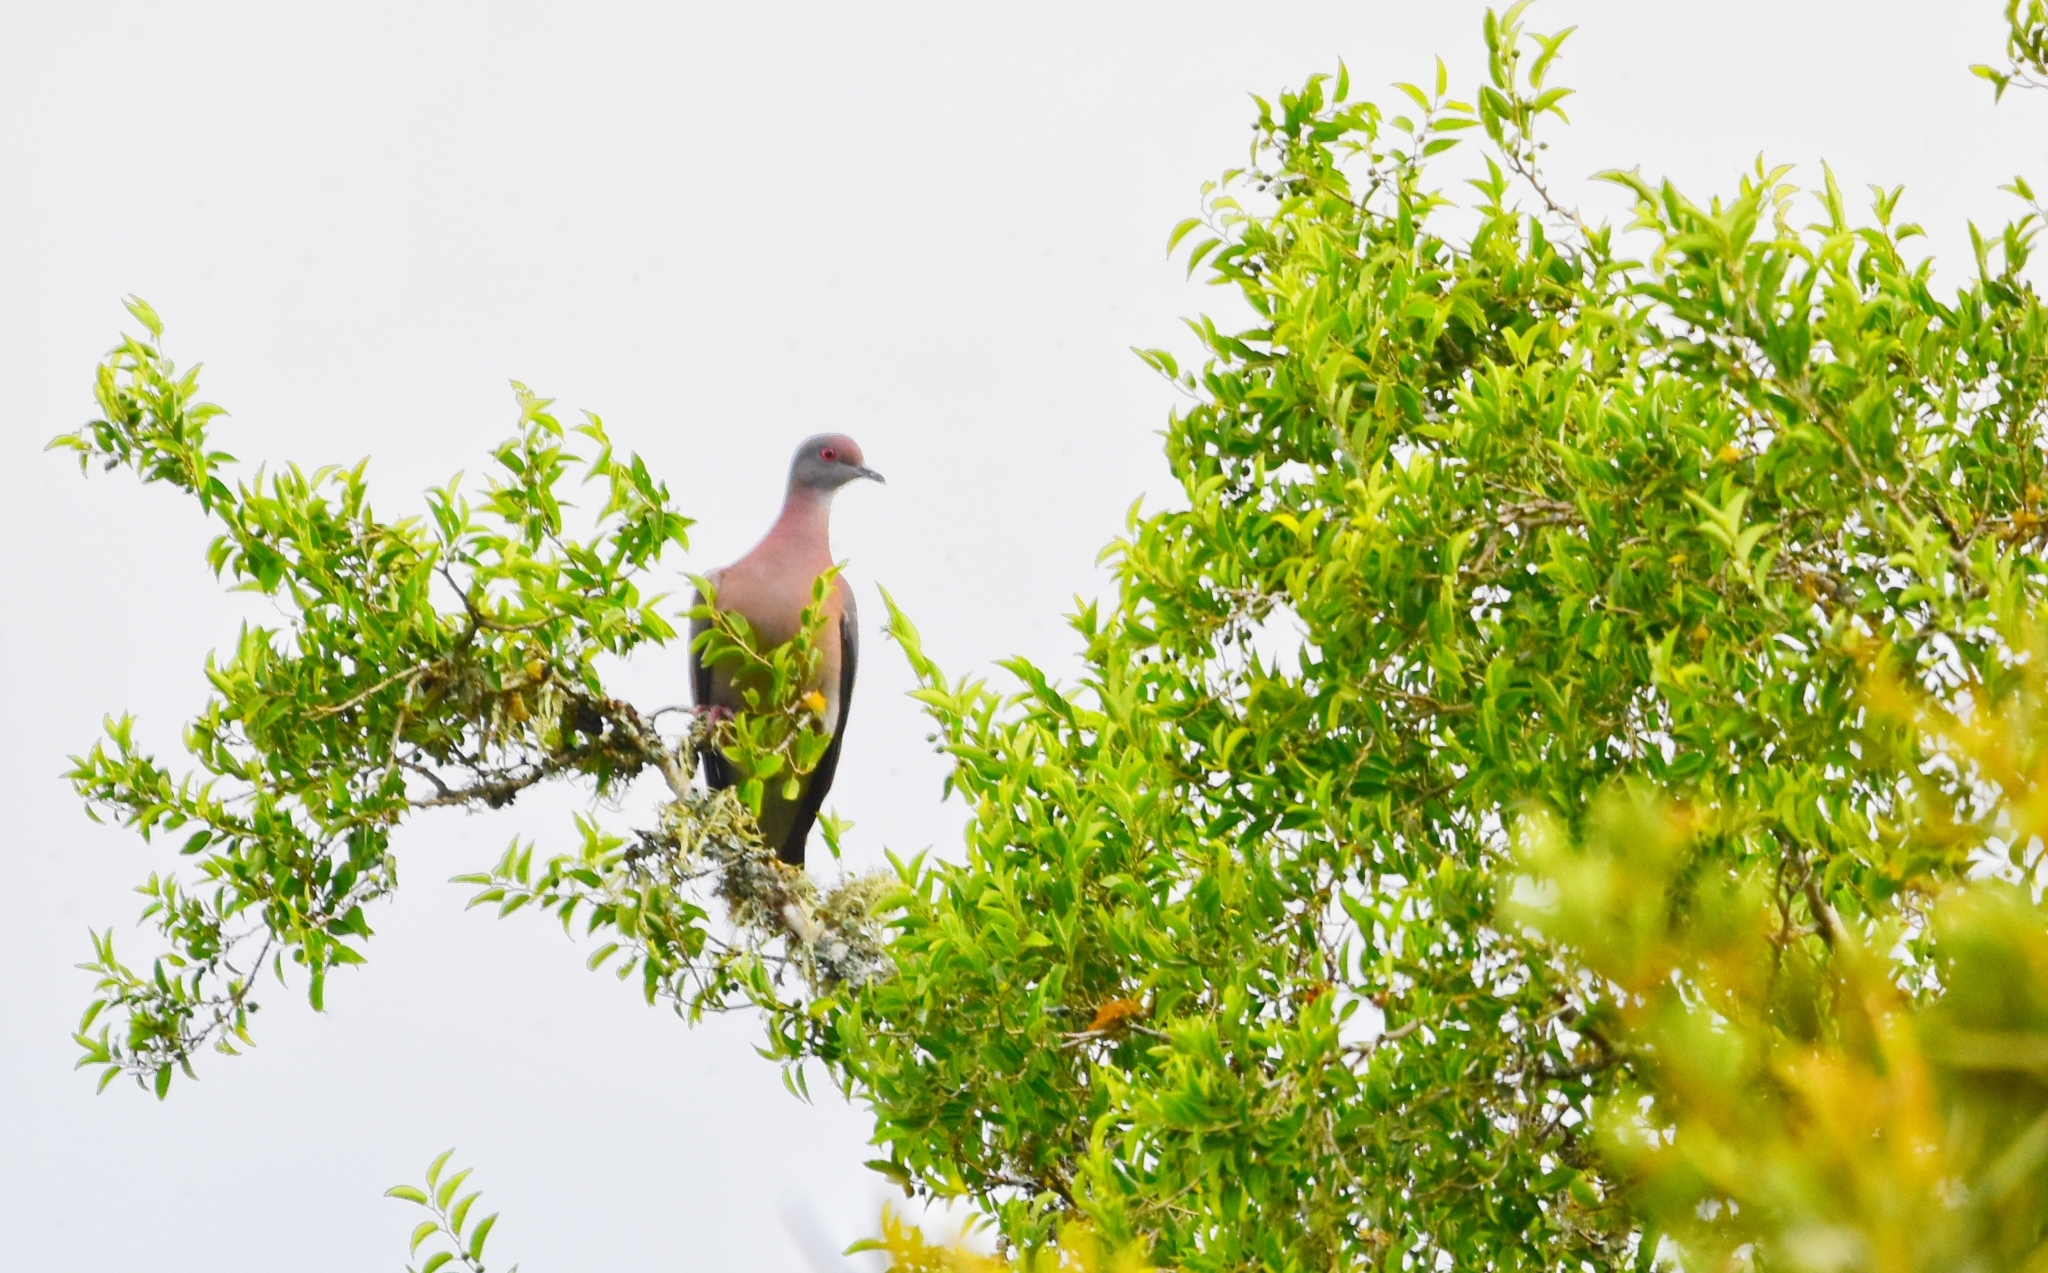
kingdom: Animalia
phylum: Chordata
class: Aves
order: Columbiformes
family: Columbidae
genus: Patagioenas
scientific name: Patagioenas cayennensis
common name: Pale-vented pigeon
